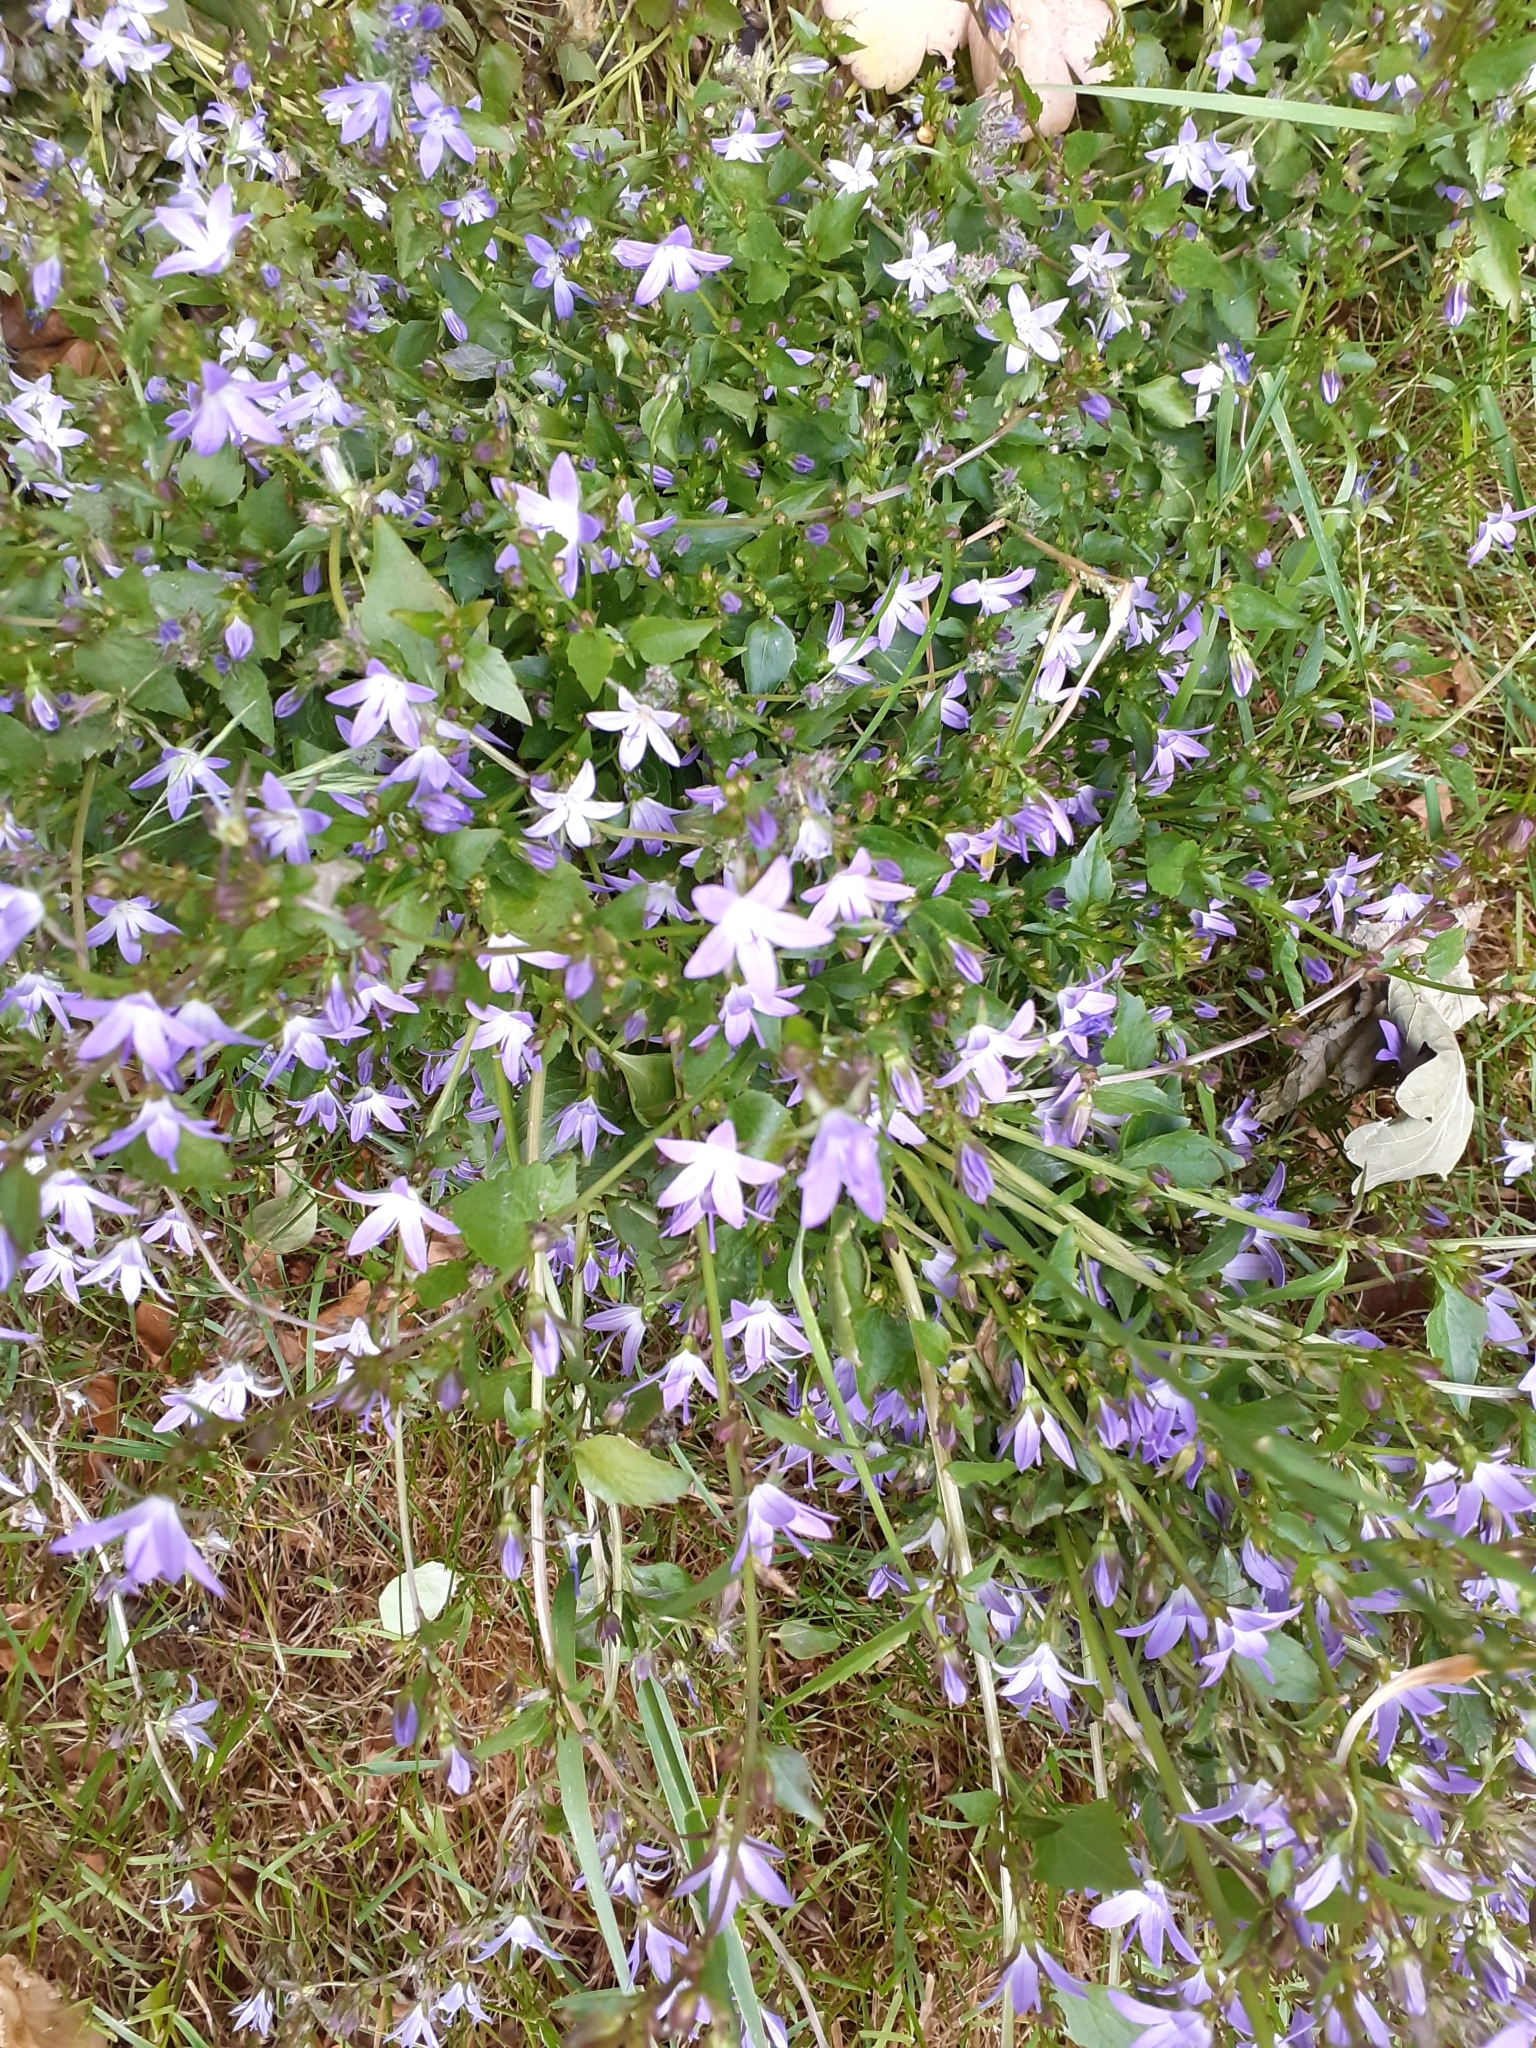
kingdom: Plantae
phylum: Tracheophyta
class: Magnoliopsida
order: Asterales
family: Campanulaceae
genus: Campanula
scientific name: Campanula poscharskyana
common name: Trailing bellflower
